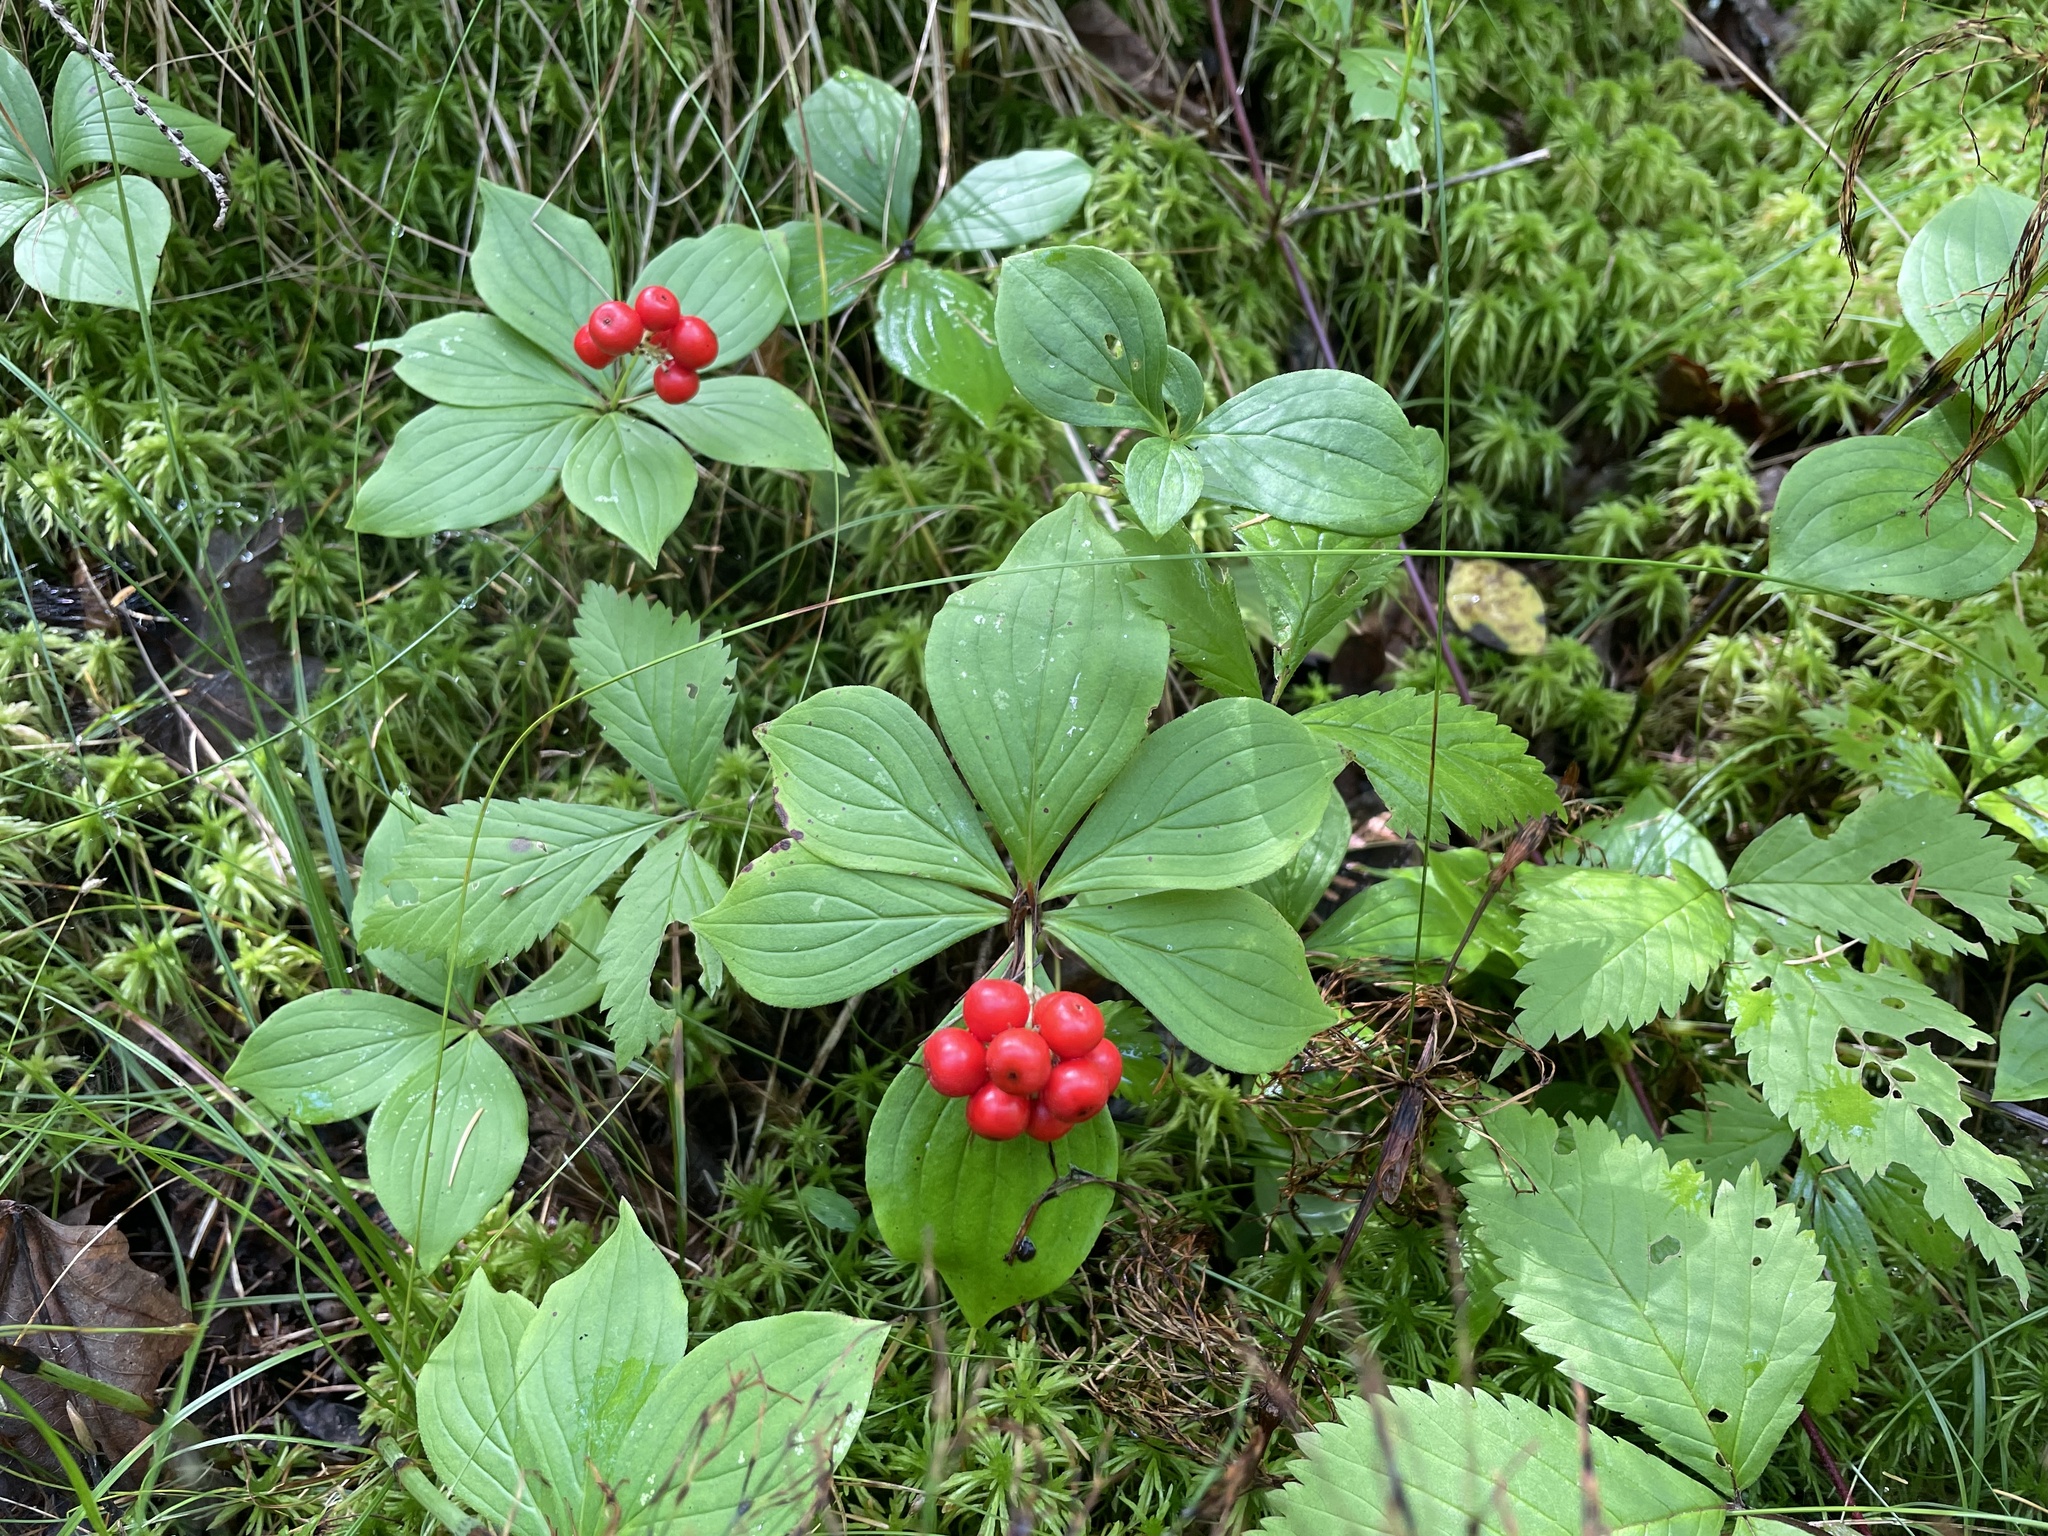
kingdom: Plantae
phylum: Tracheophyta
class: Magnoliopsida
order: Cornales
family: Cornaceae
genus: Cornus
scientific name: Cornus canadensis
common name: Creeping dogwood
